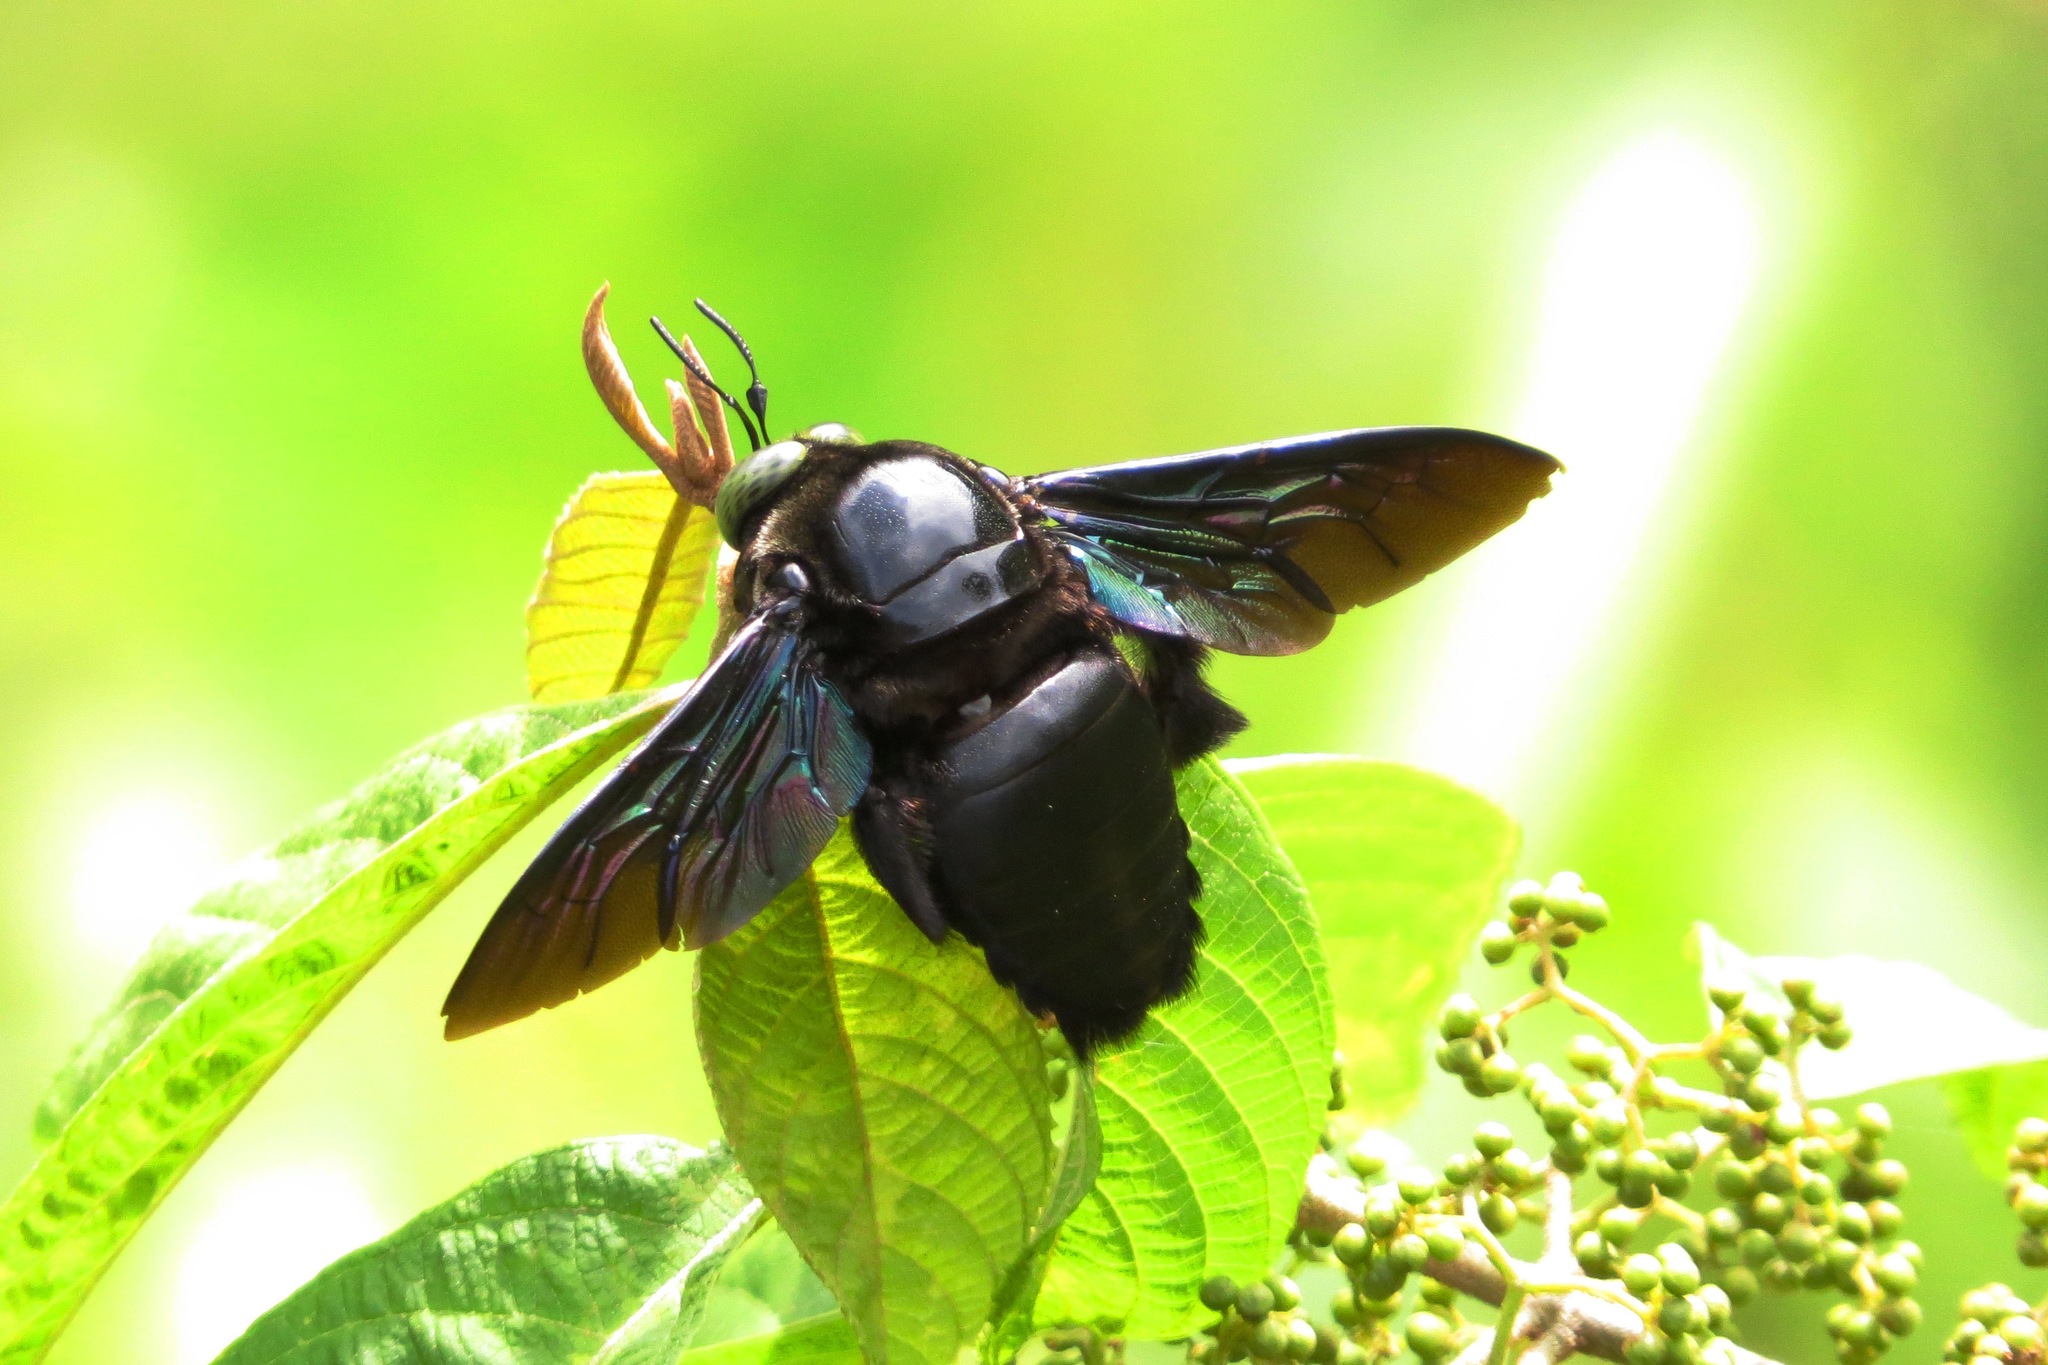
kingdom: Animalia
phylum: Arthropoda
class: Insecta
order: Hymenoptera
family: Apidae
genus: Xylocopa
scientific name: Xylocopa latipes
